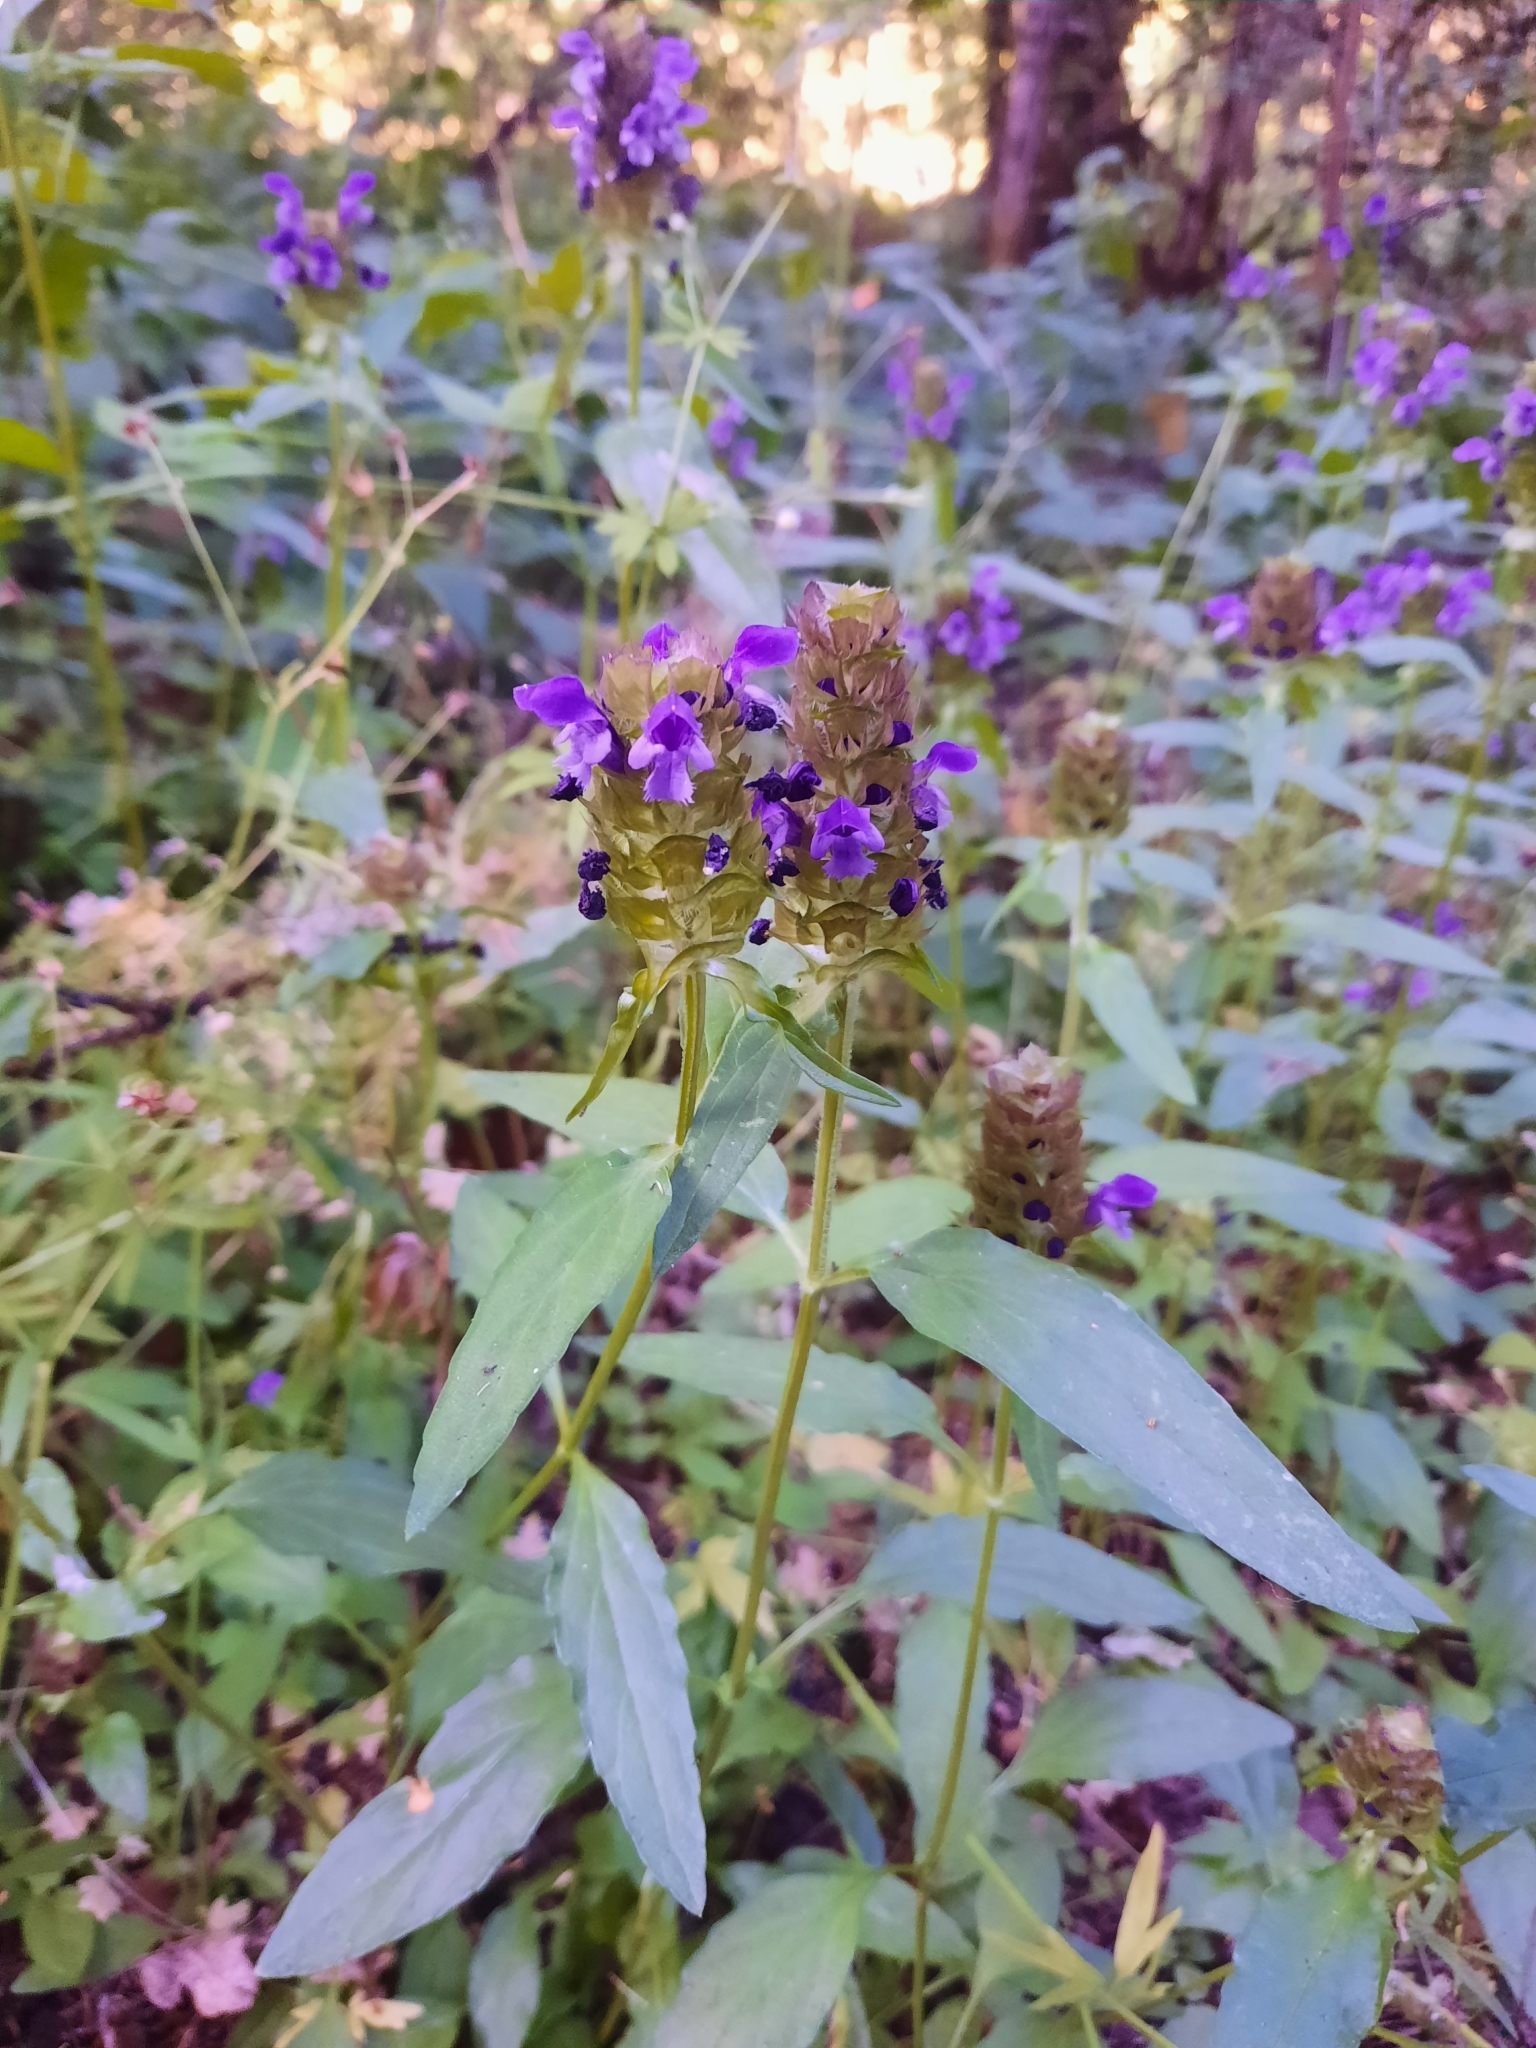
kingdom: Plantae
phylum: Tracheophyta
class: Magnoliopsida
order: Lamiales
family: Lamiaceae
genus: Prunella
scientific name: Prunella vulgaris
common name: Heal-all
